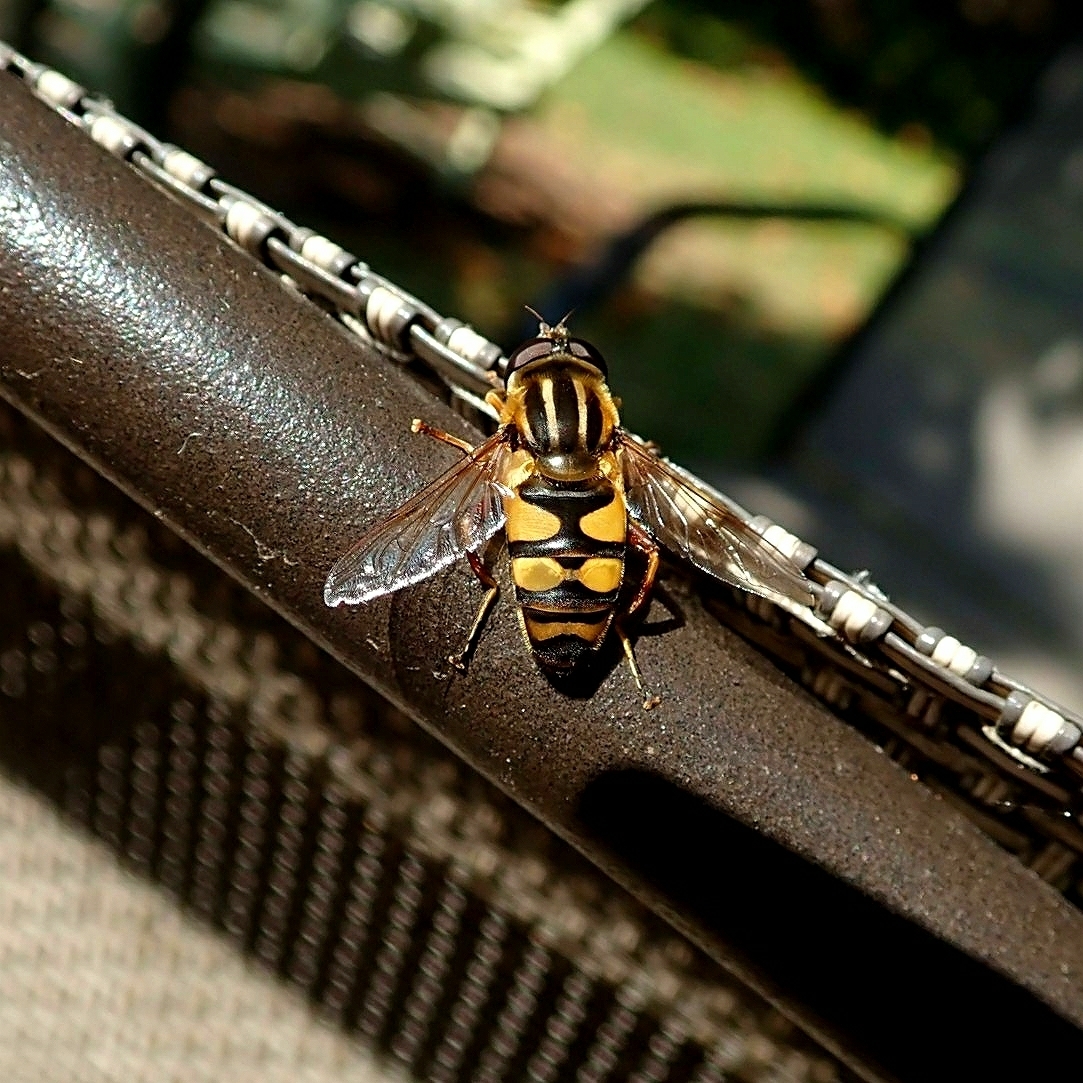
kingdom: Animalia
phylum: Arthropoda
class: Insecta
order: Diptera
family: Syrphidae
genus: Helophilus
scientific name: Helophilus fasciatus
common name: Narrow-headed marsh fly
